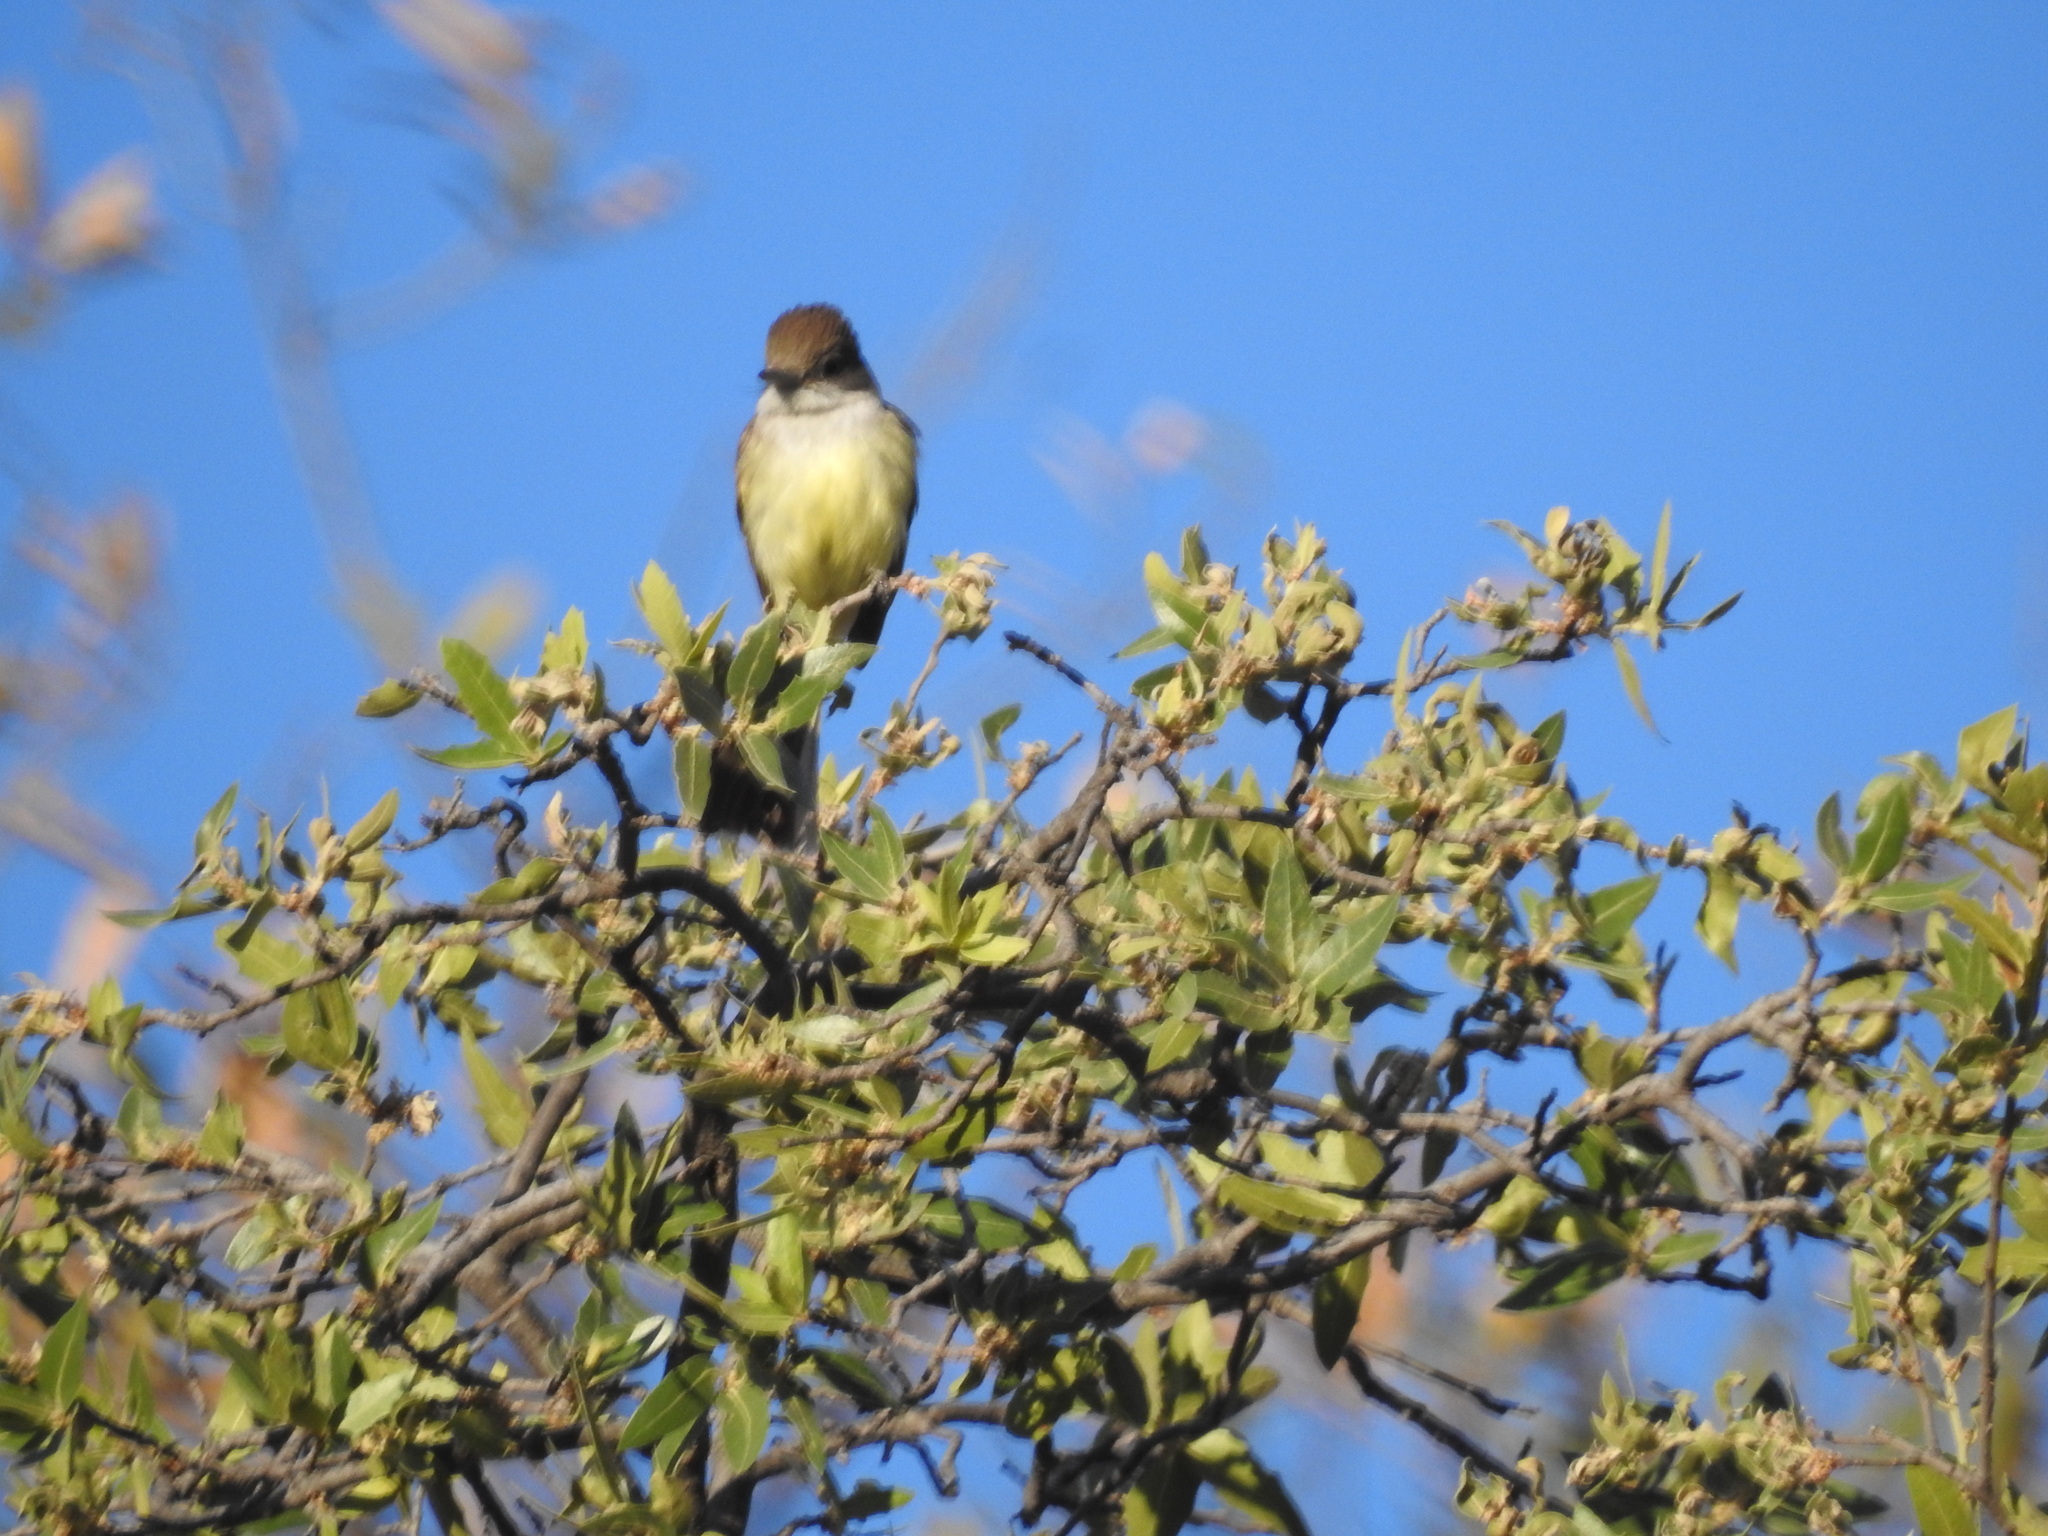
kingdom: Animalia
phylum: Chordata
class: Aves
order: Passeriformes
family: Tyrannidae
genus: Myiarchus
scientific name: Myiarchus tuberculifer
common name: Dusky-capped flycatcher
